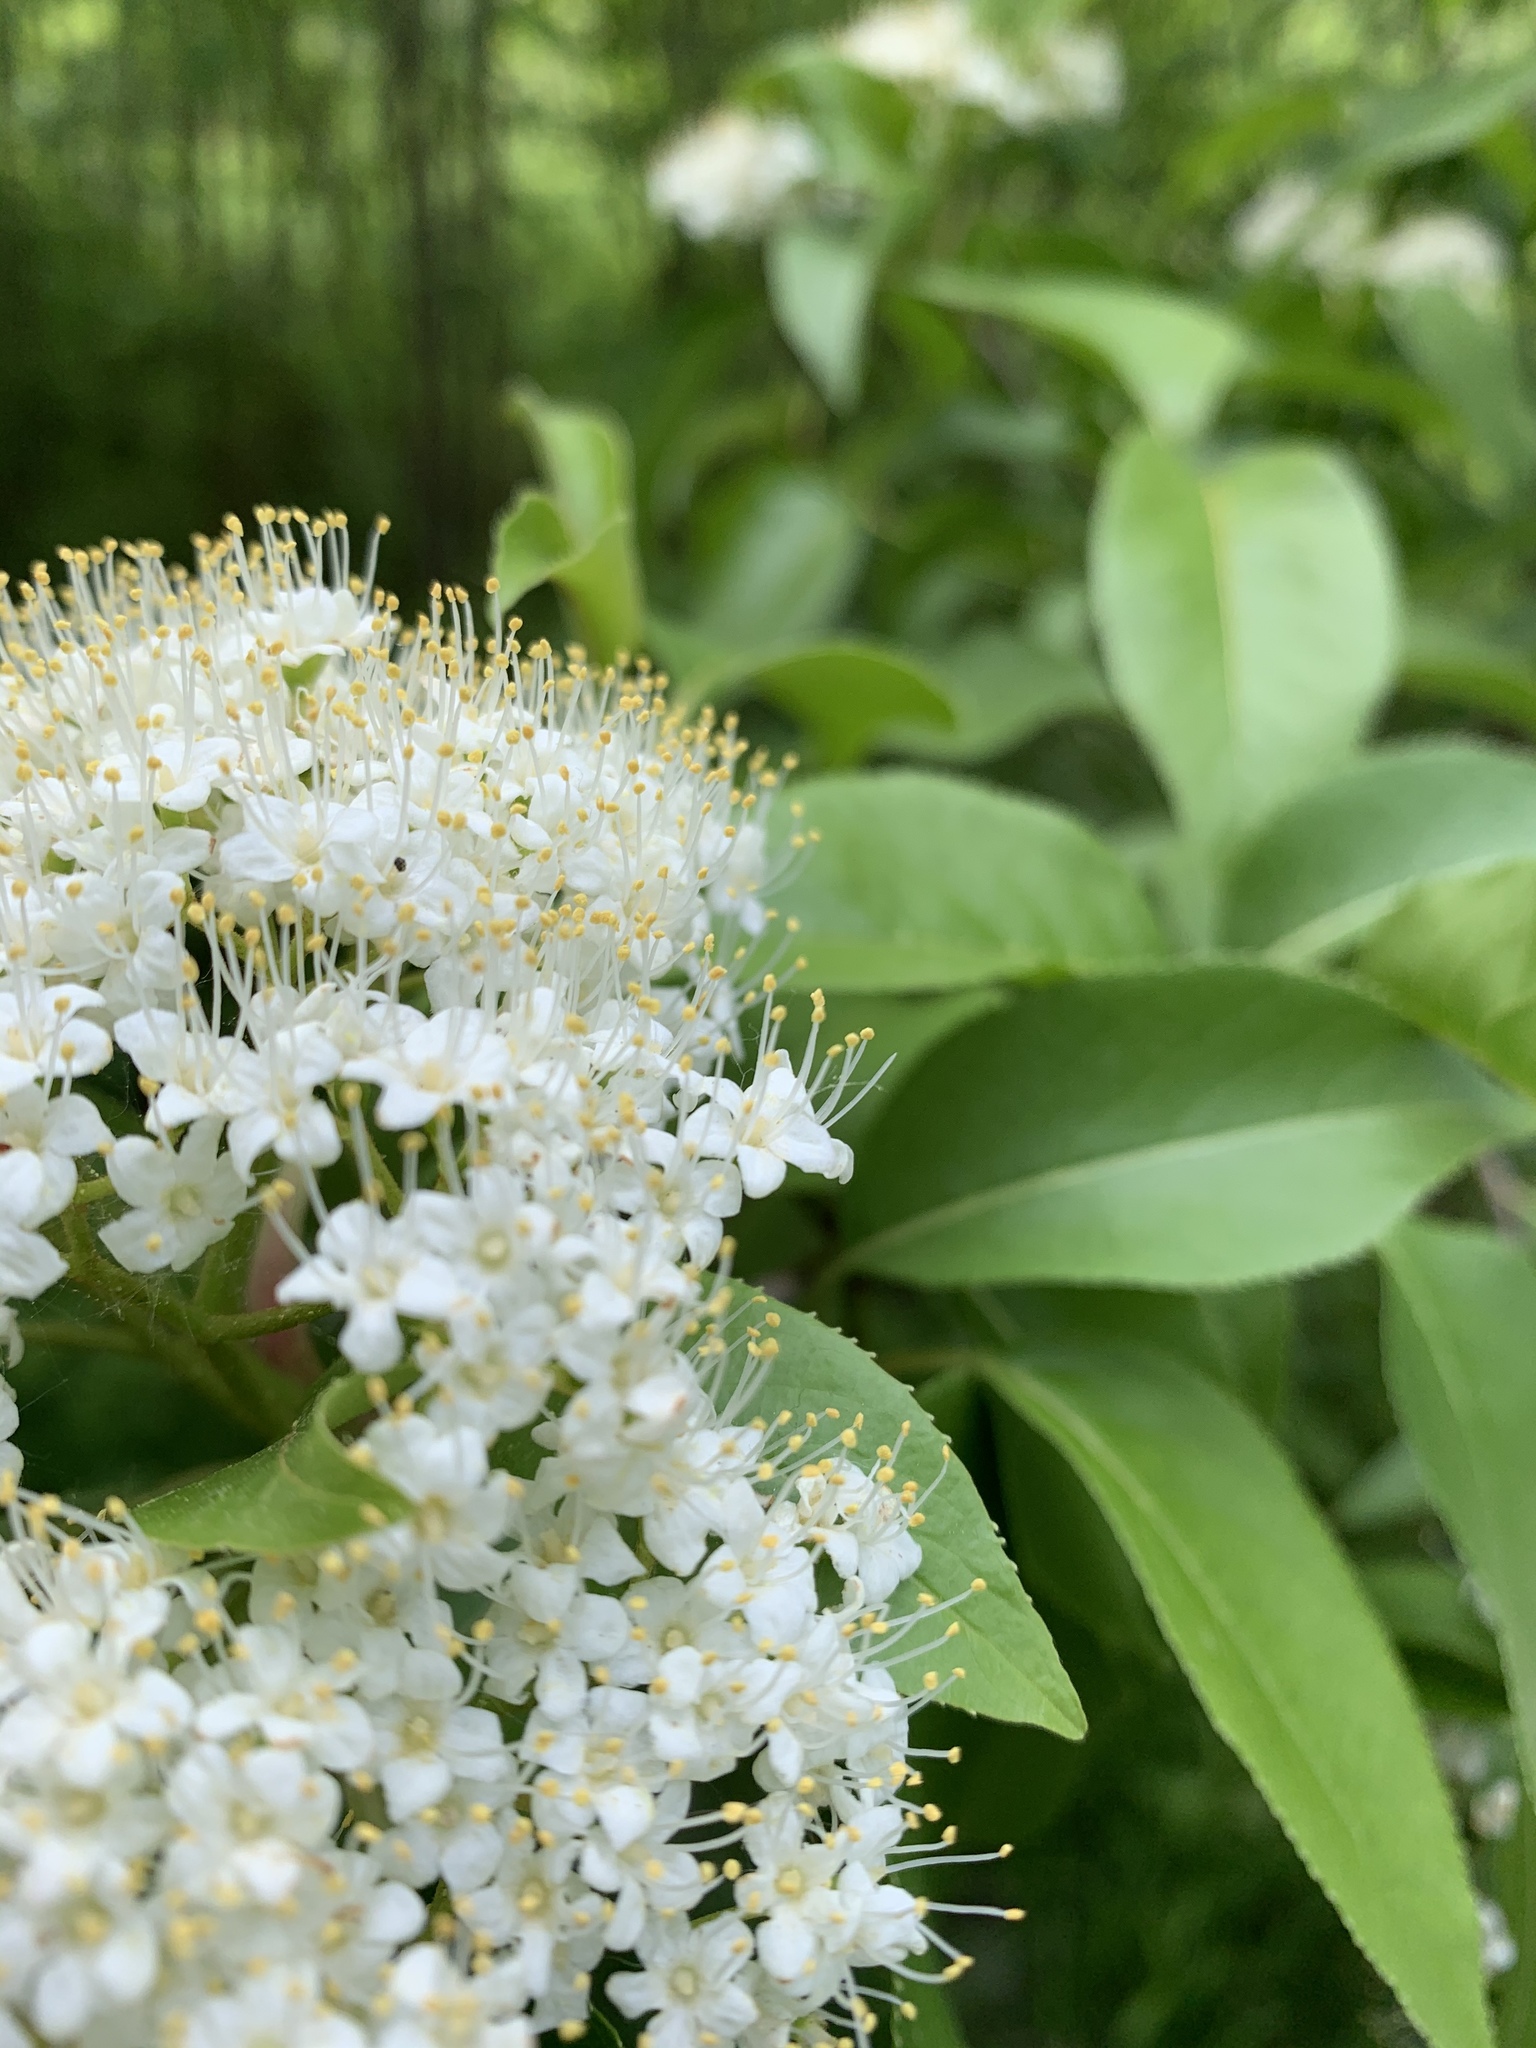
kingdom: Plantae
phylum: Tracheophyta
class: Magnoliopsida
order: Dipsacales
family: Viburnaceae
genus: Viburnum
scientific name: Viburnum lentago
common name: Black haw
